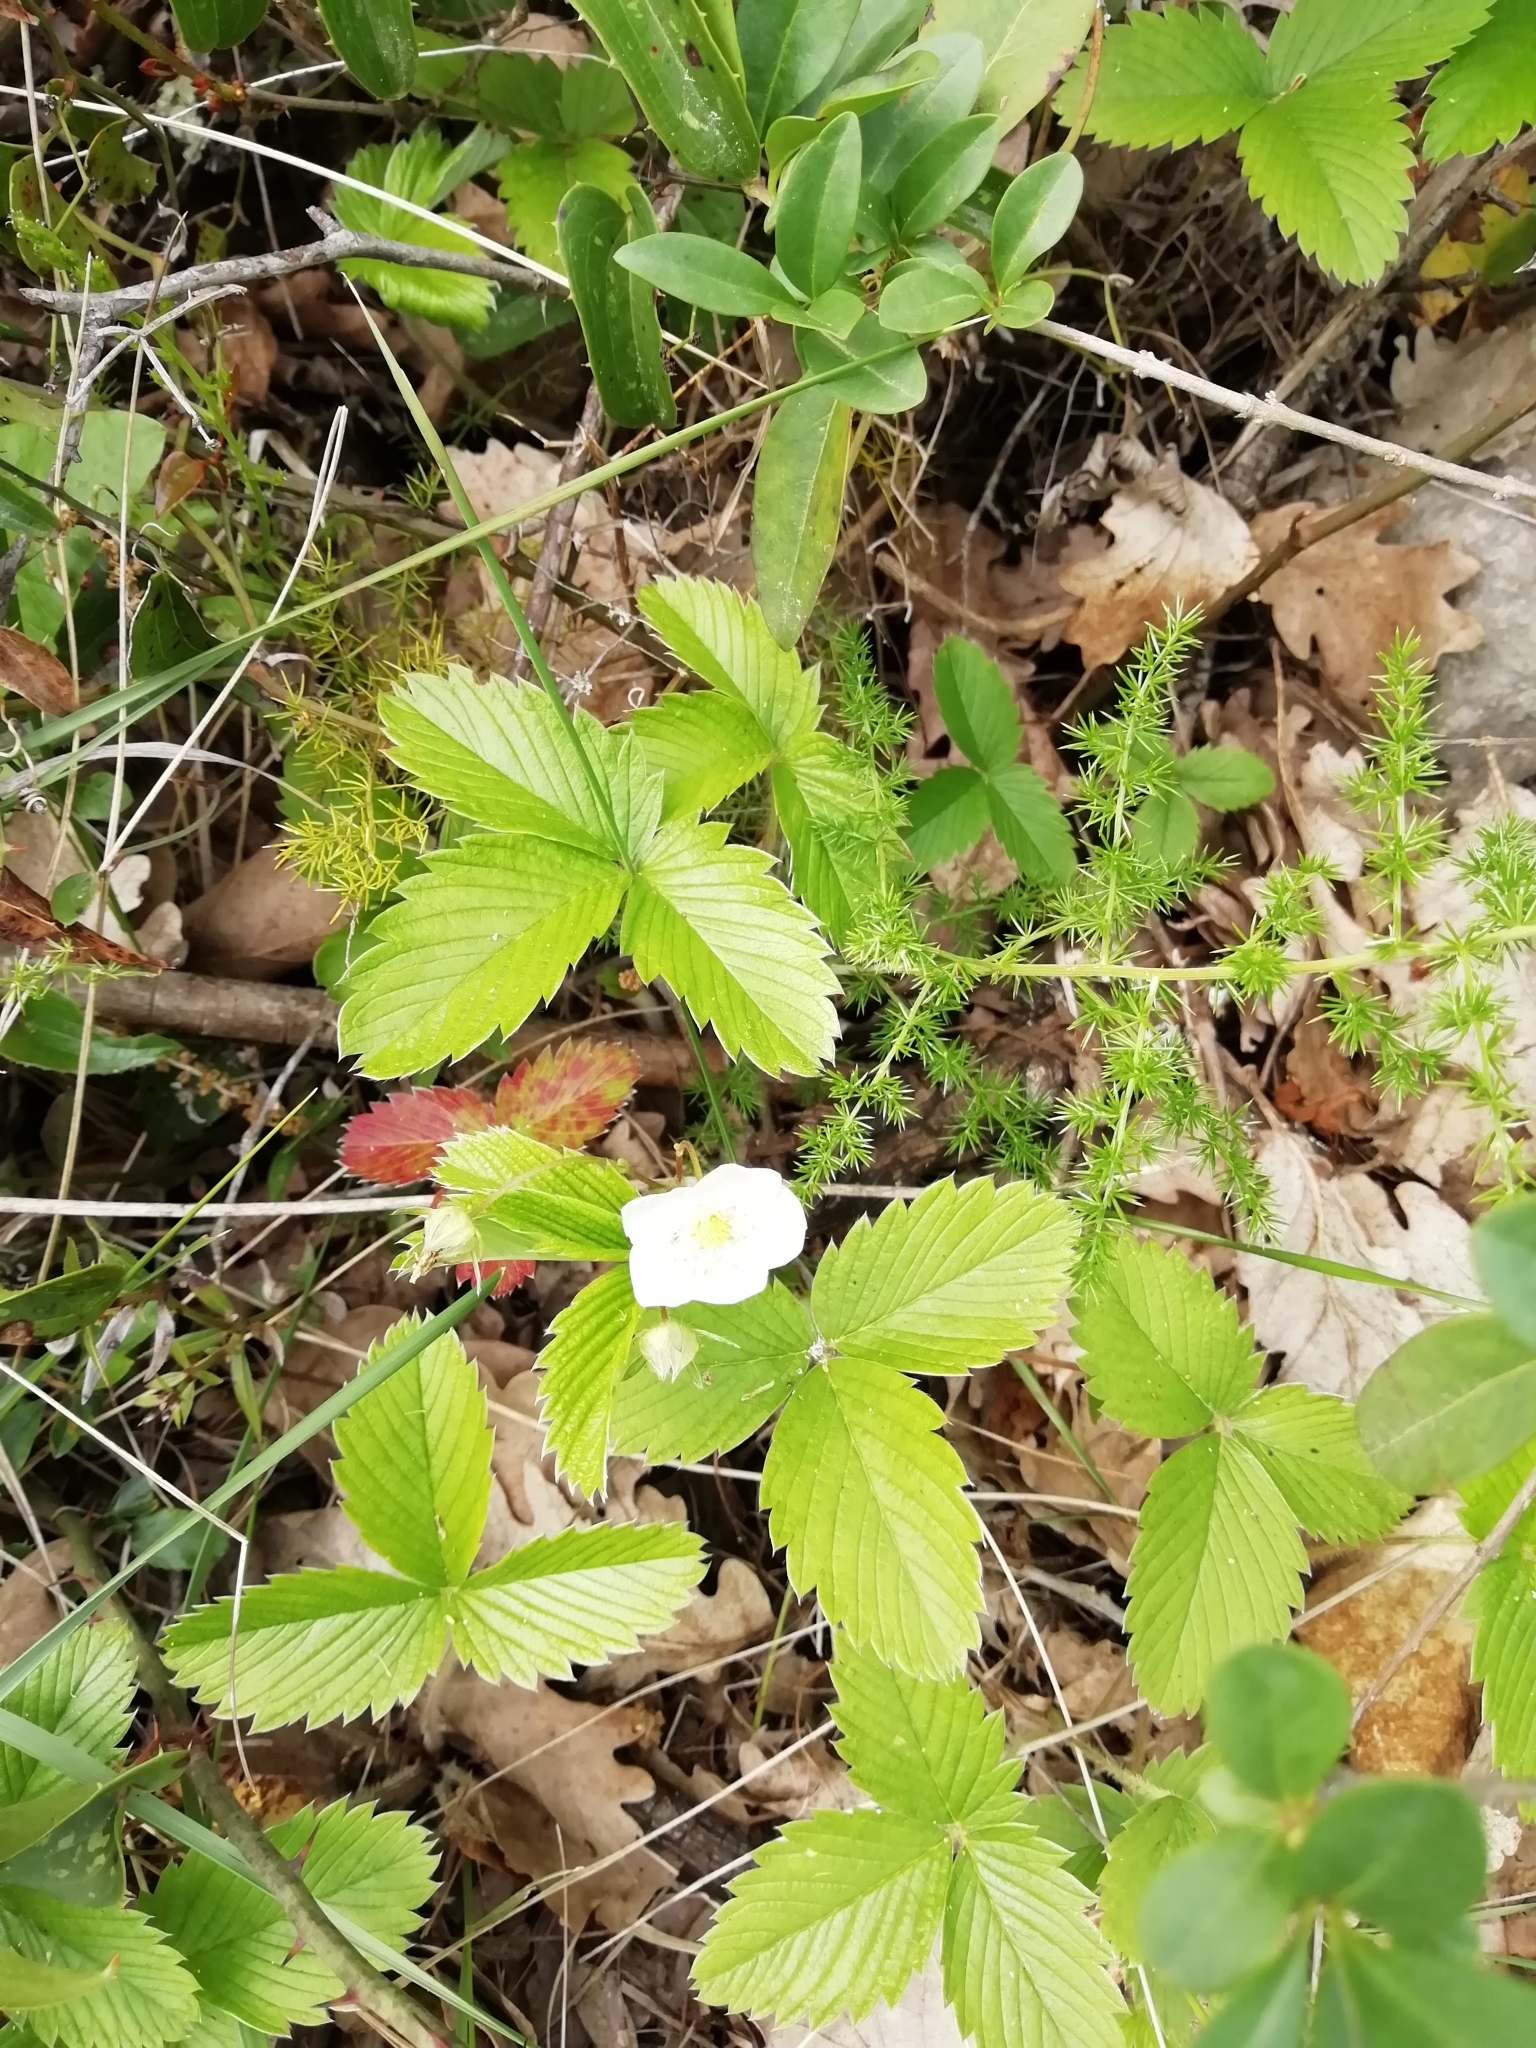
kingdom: Plantae
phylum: Tracheophyta
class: Magnoliopsida
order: Rosales
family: Rosaceae
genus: Fragaria
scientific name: Fragaria viridis
